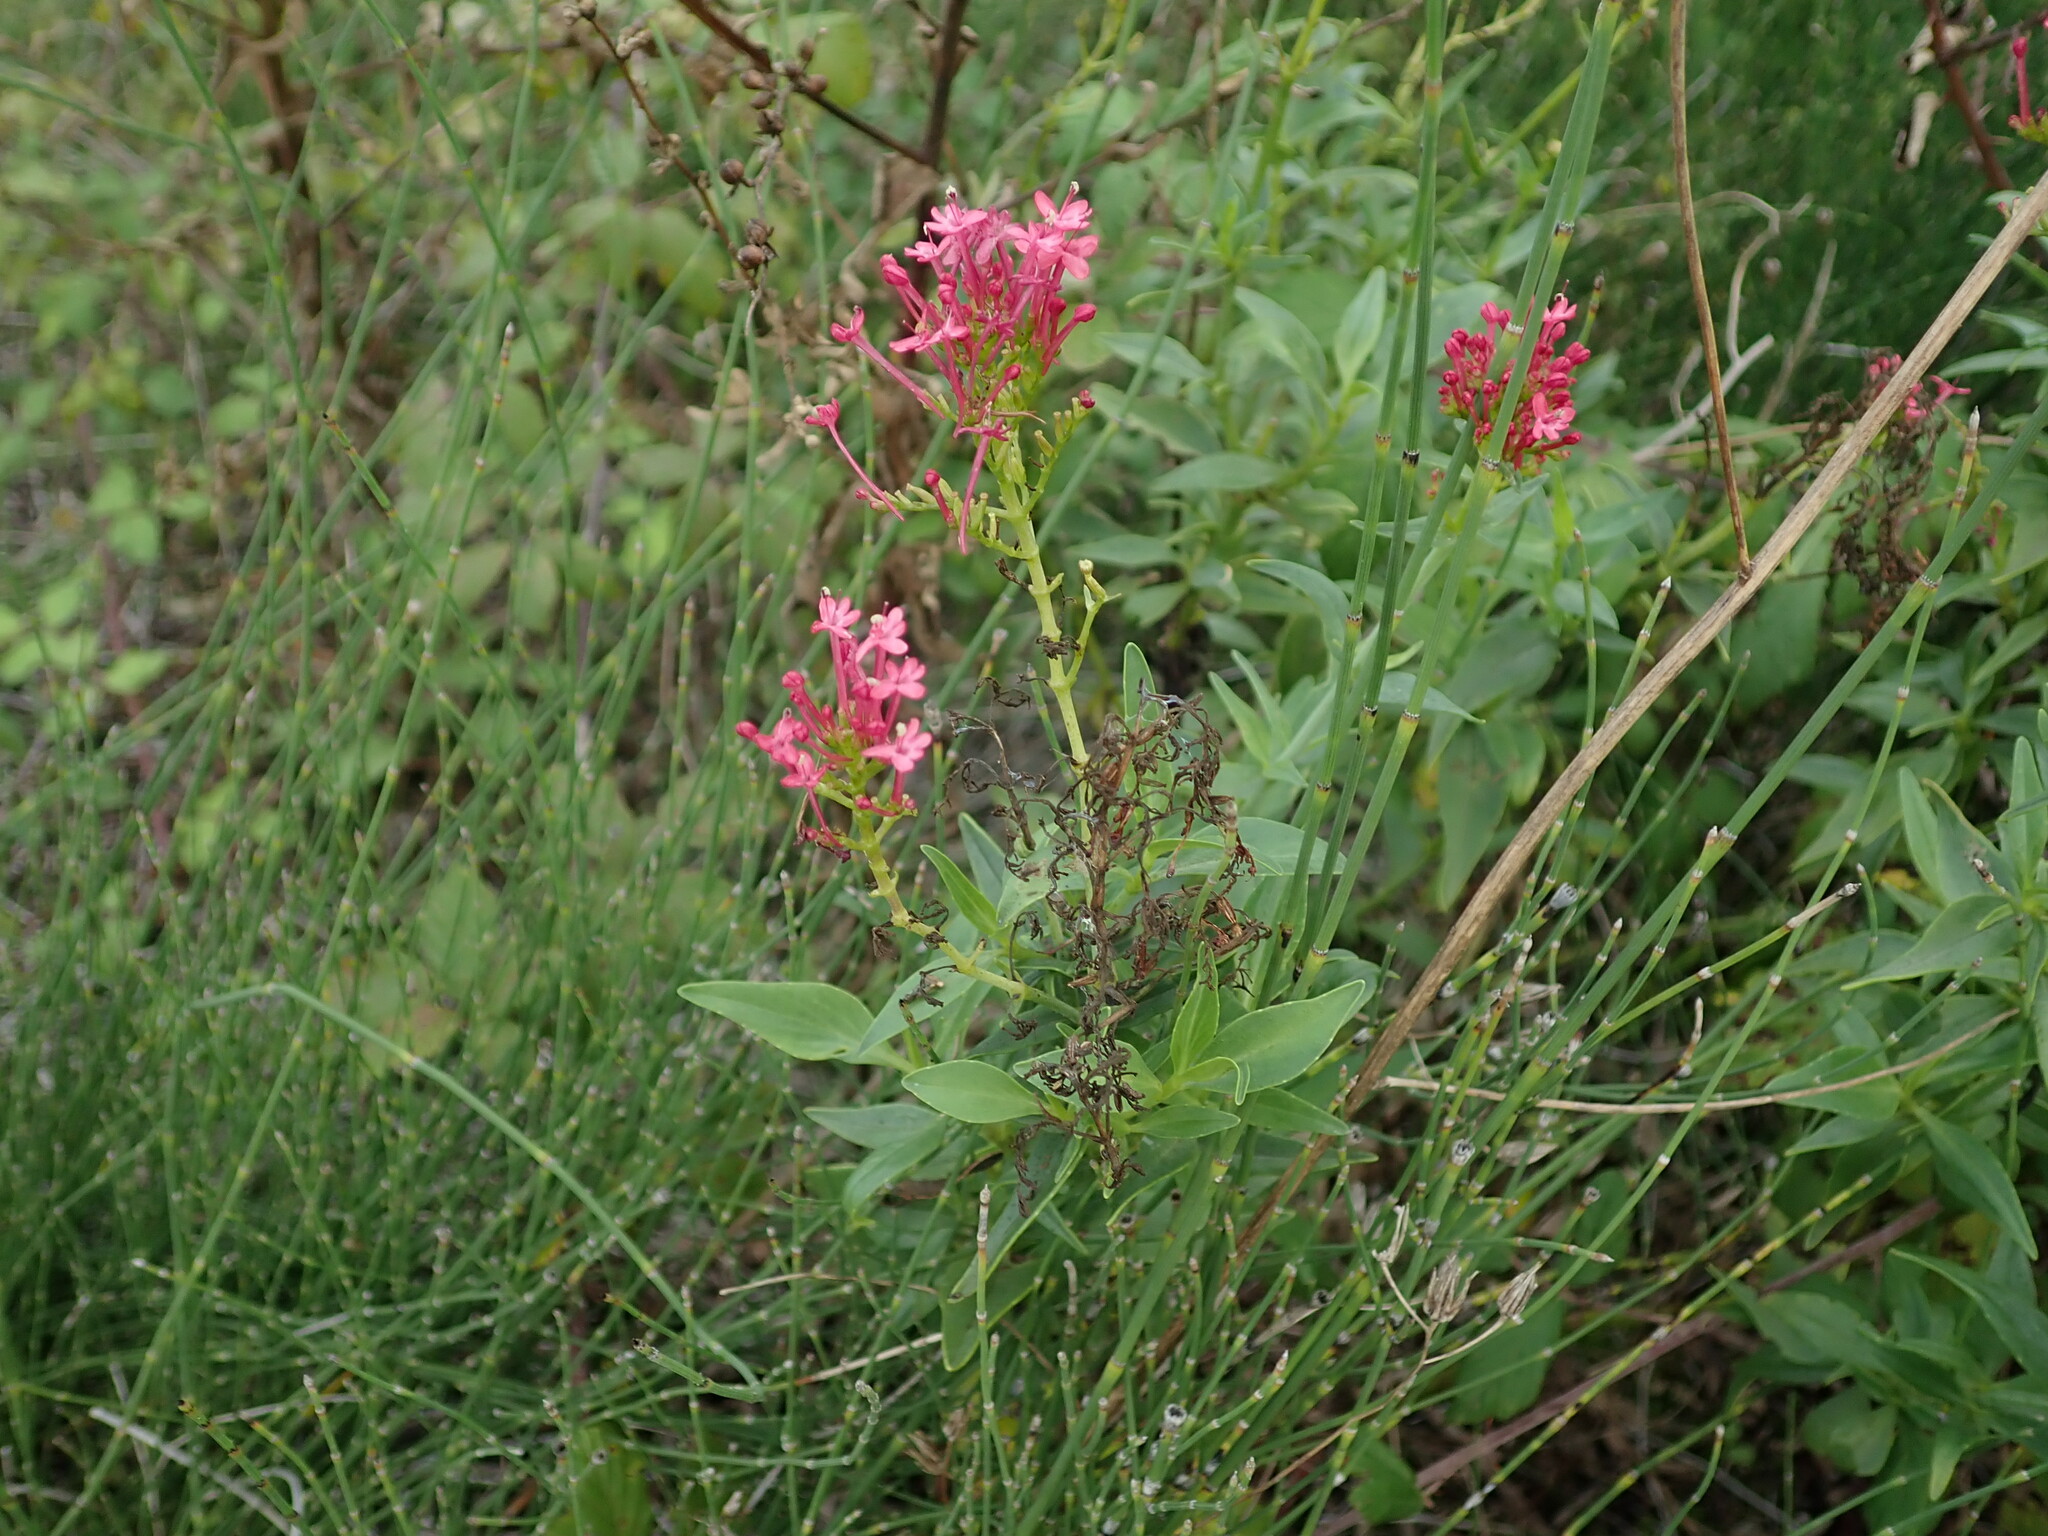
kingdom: Plantae
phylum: Tracheophyta
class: Magnoliopsida
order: Dipsacales
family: Caprifoliaceae
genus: Centranthus
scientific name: Centranthus ruber
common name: Red valerian
